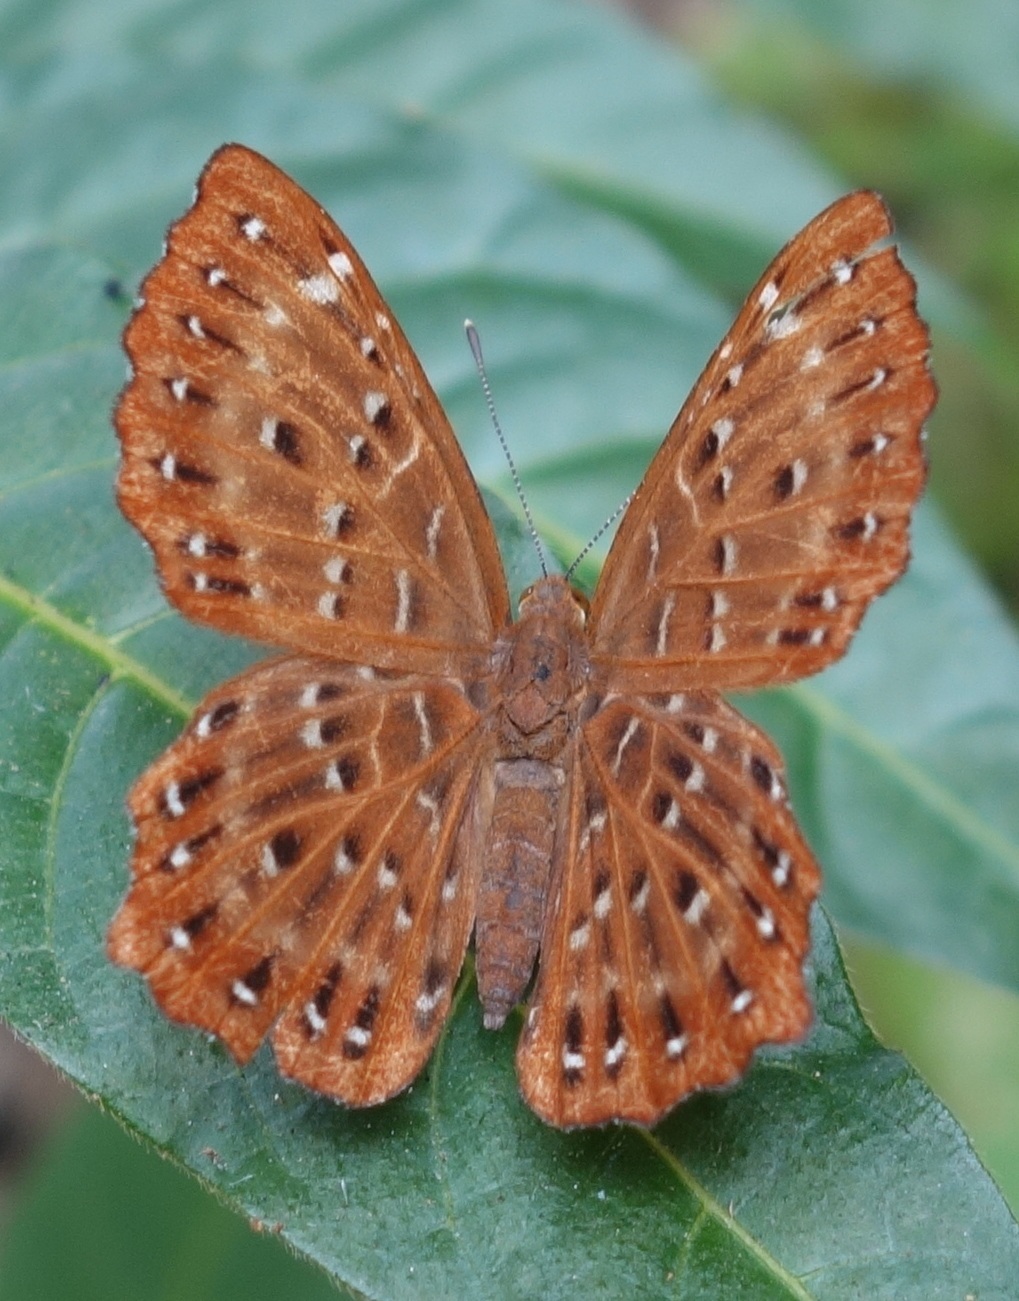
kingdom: Animalia
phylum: Arthropoda
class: Insecta
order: Lepidoptera
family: Riodinidae
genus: Zemeros
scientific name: Zemeros flegyas
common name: Punchinello
